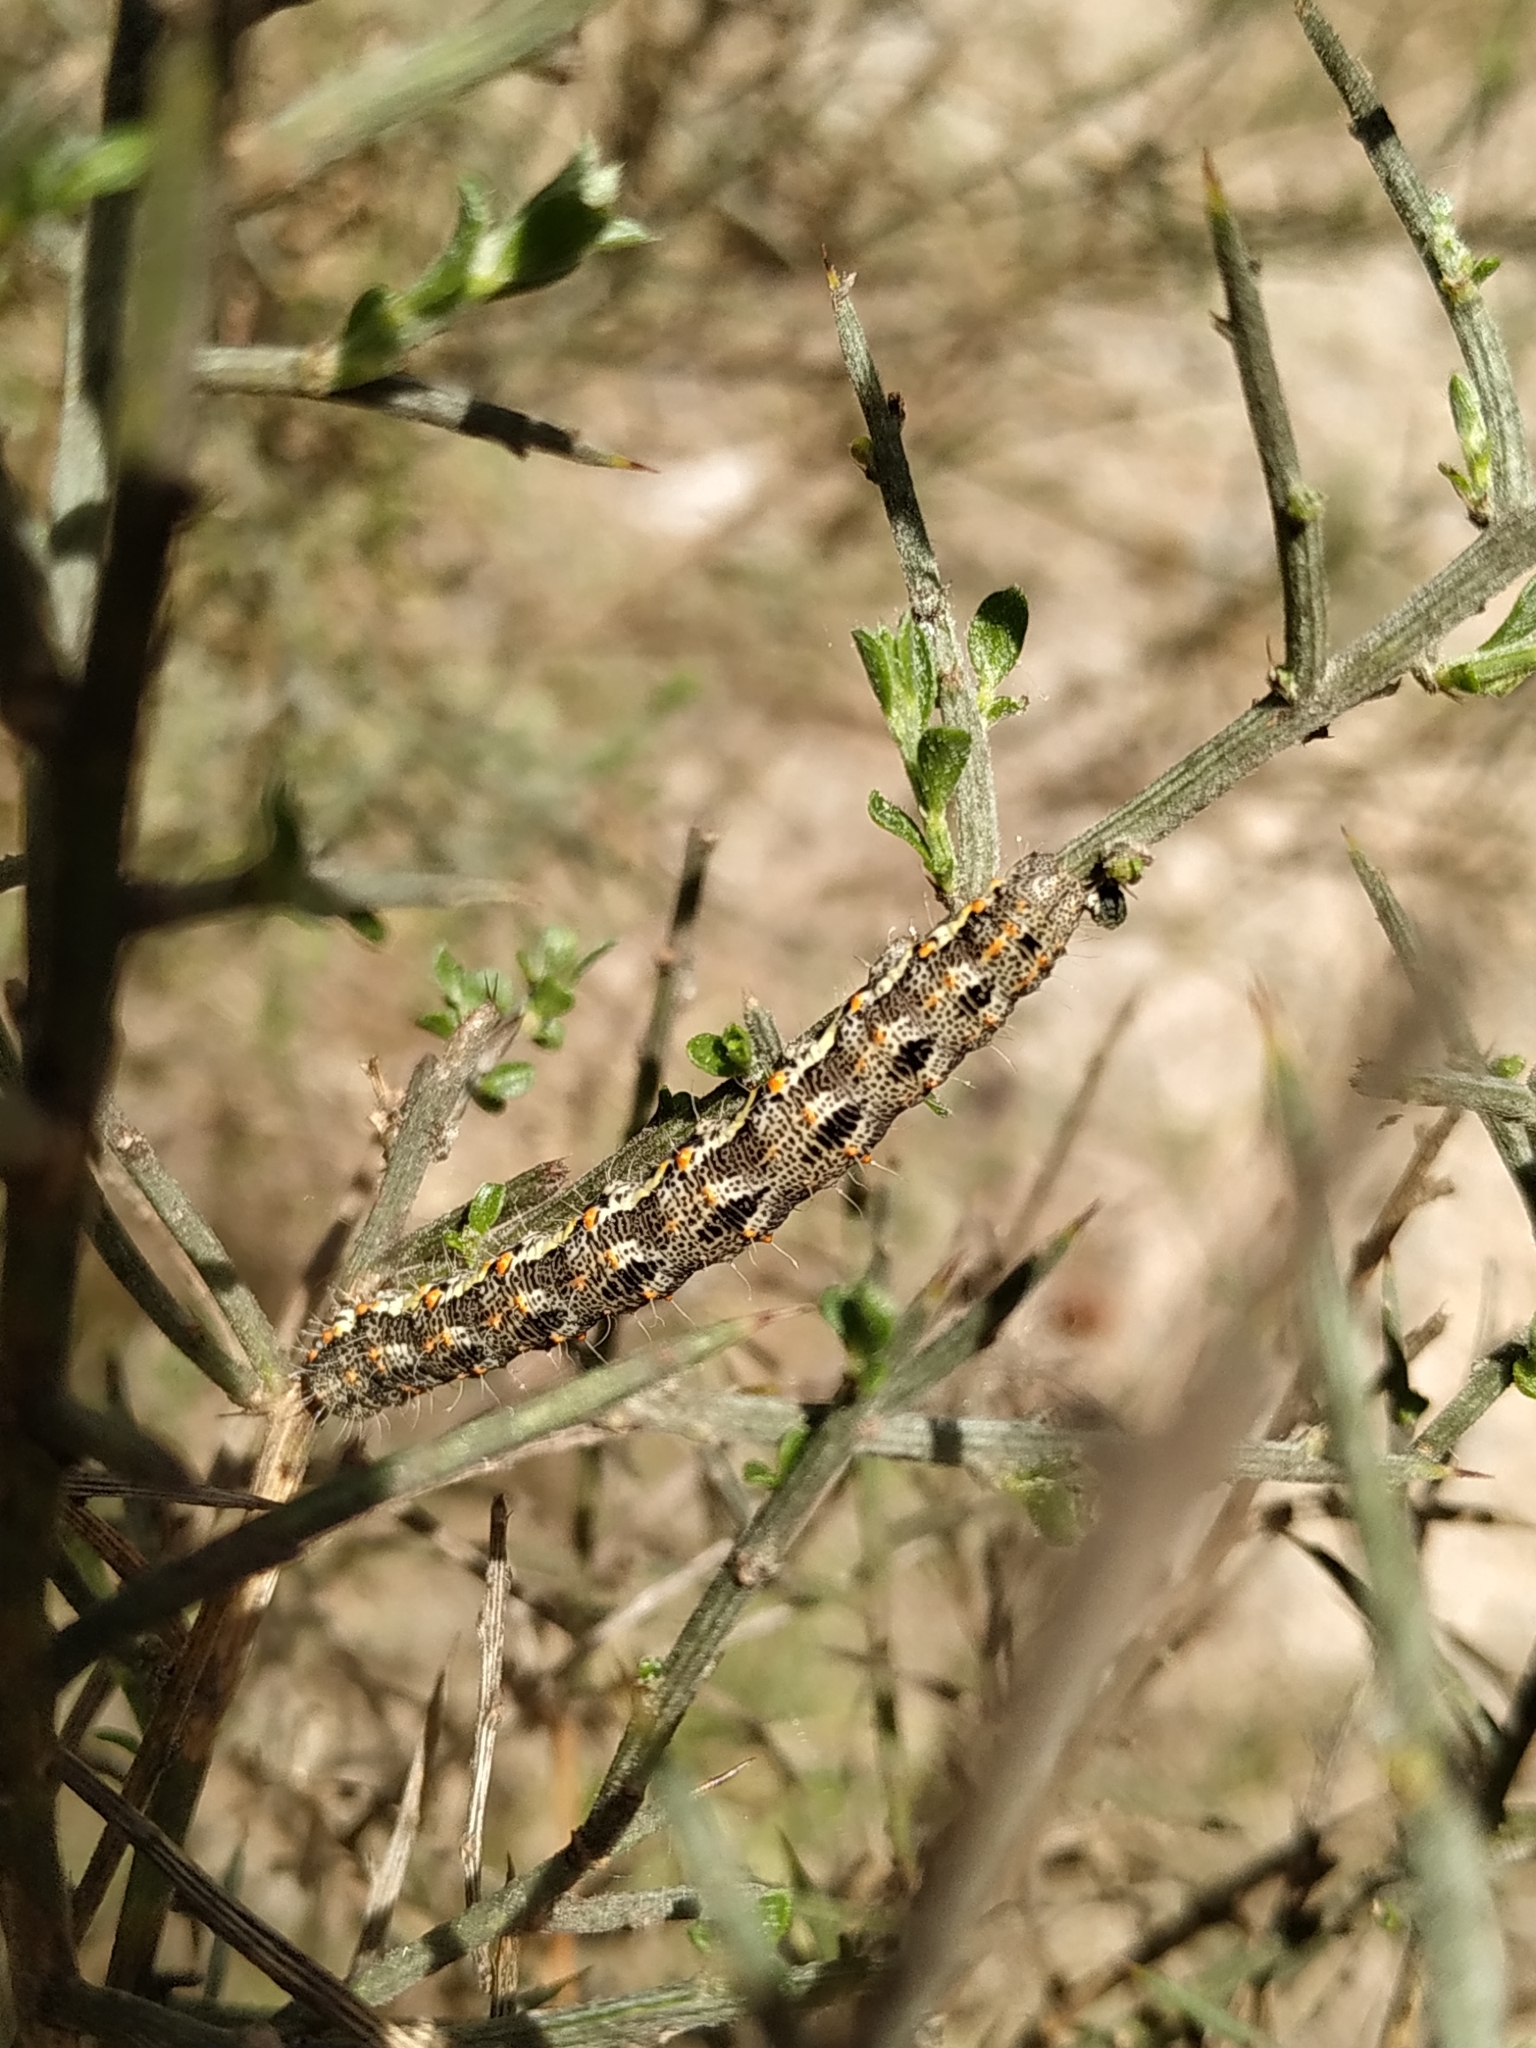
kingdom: Animalia
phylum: Arthropoda
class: Insecta
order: Lepidoptera
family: Geometridae
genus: Athroolopha
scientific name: Athroolopha pennigeraria
